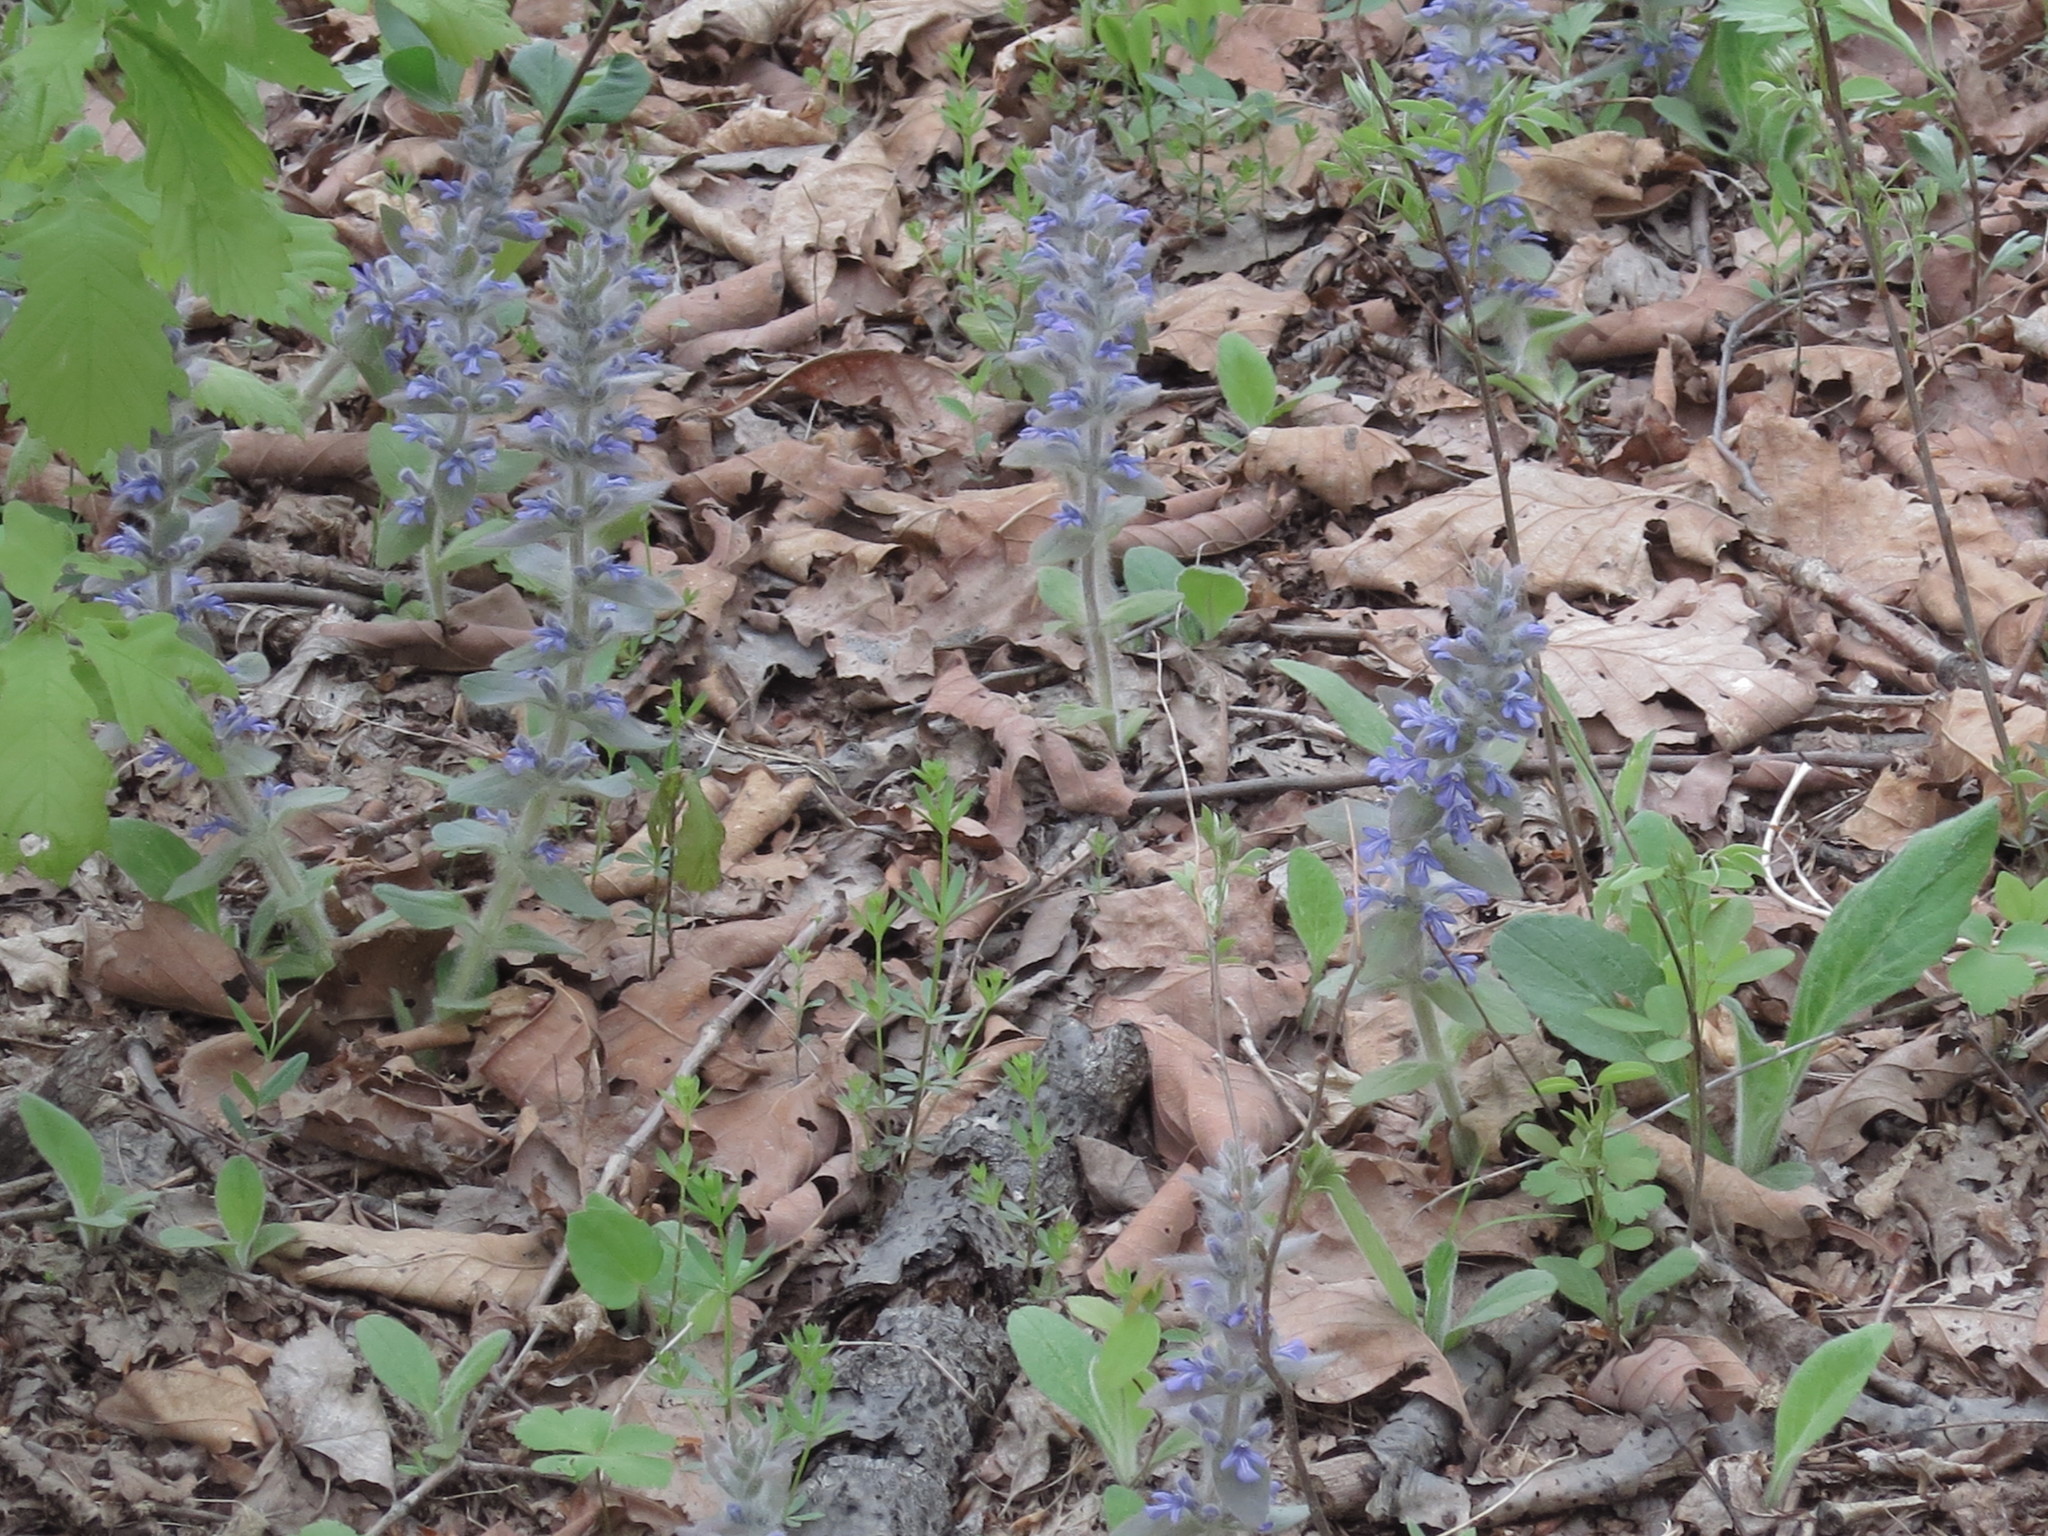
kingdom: Plantae
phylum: Tracheophyta
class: Magnoliopsida
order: Lamiales
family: Lamiaceae
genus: Ajuga
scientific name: Ajuga multiflora
